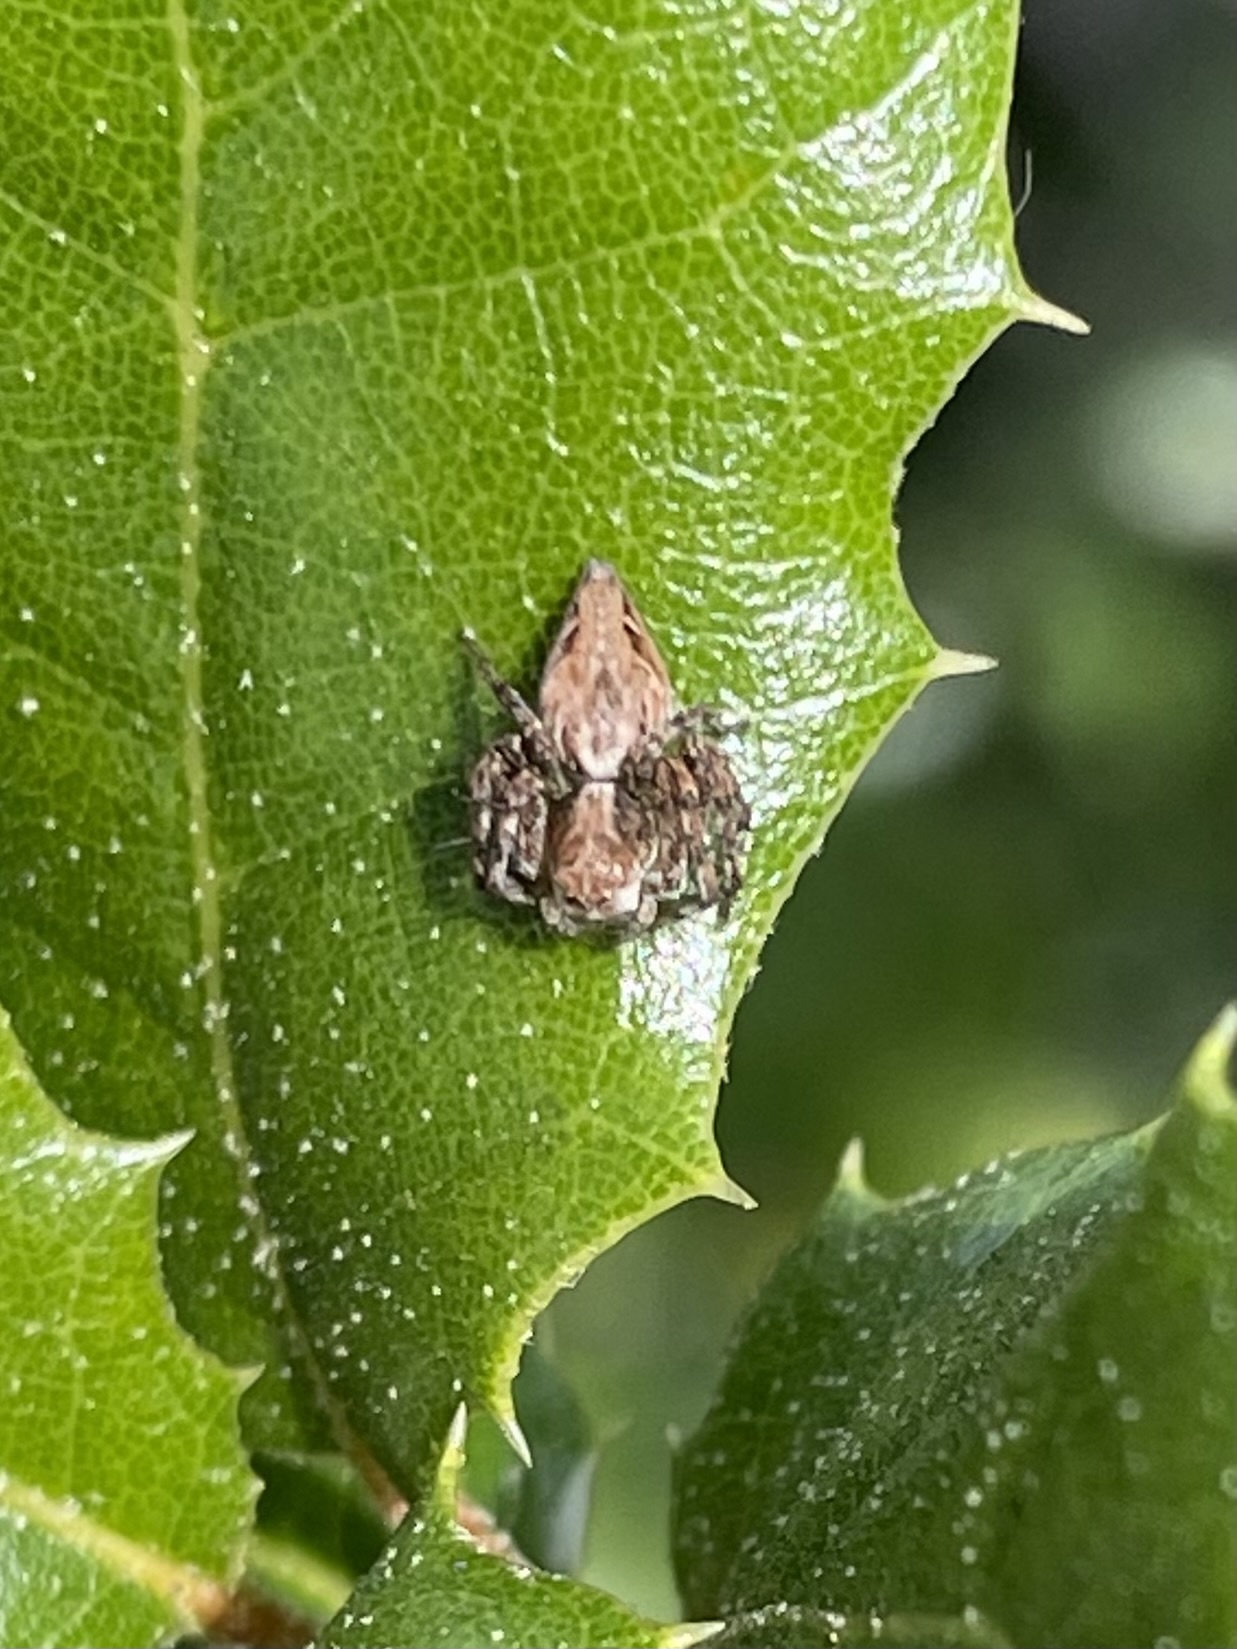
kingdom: Animalia
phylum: Arthropoda
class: Arachnida
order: Araneae
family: Oxyopidae
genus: Oxyopes
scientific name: Oxyopes scalaris
